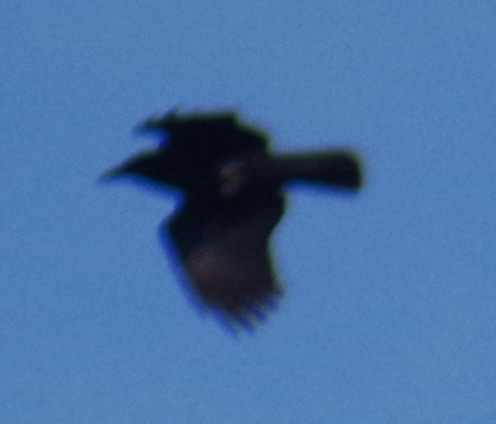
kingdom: Animalia
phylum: Chordata
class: Aves
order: Passeriformes
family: Corvidae
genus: Corvus
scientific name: Corvus brachyrhynchos
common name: American crow
